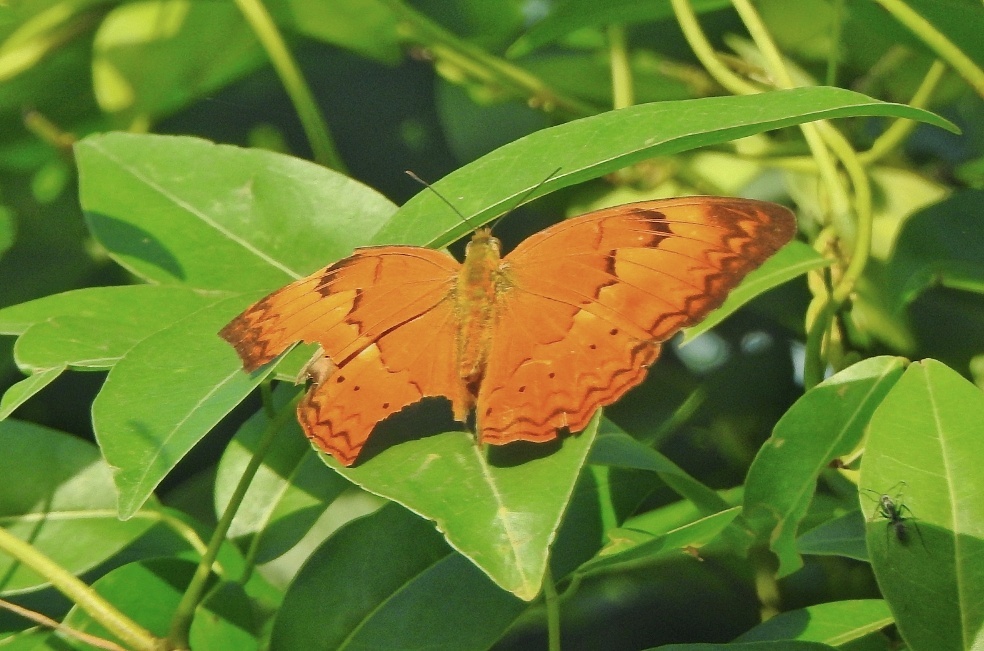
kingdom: Animalia
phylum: Arthropoda
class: Insecta
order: Lepidoptera
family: Nymphalidae
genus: Cirrochroa
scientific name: Cirrochroa thais
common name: Tamil yeoman
